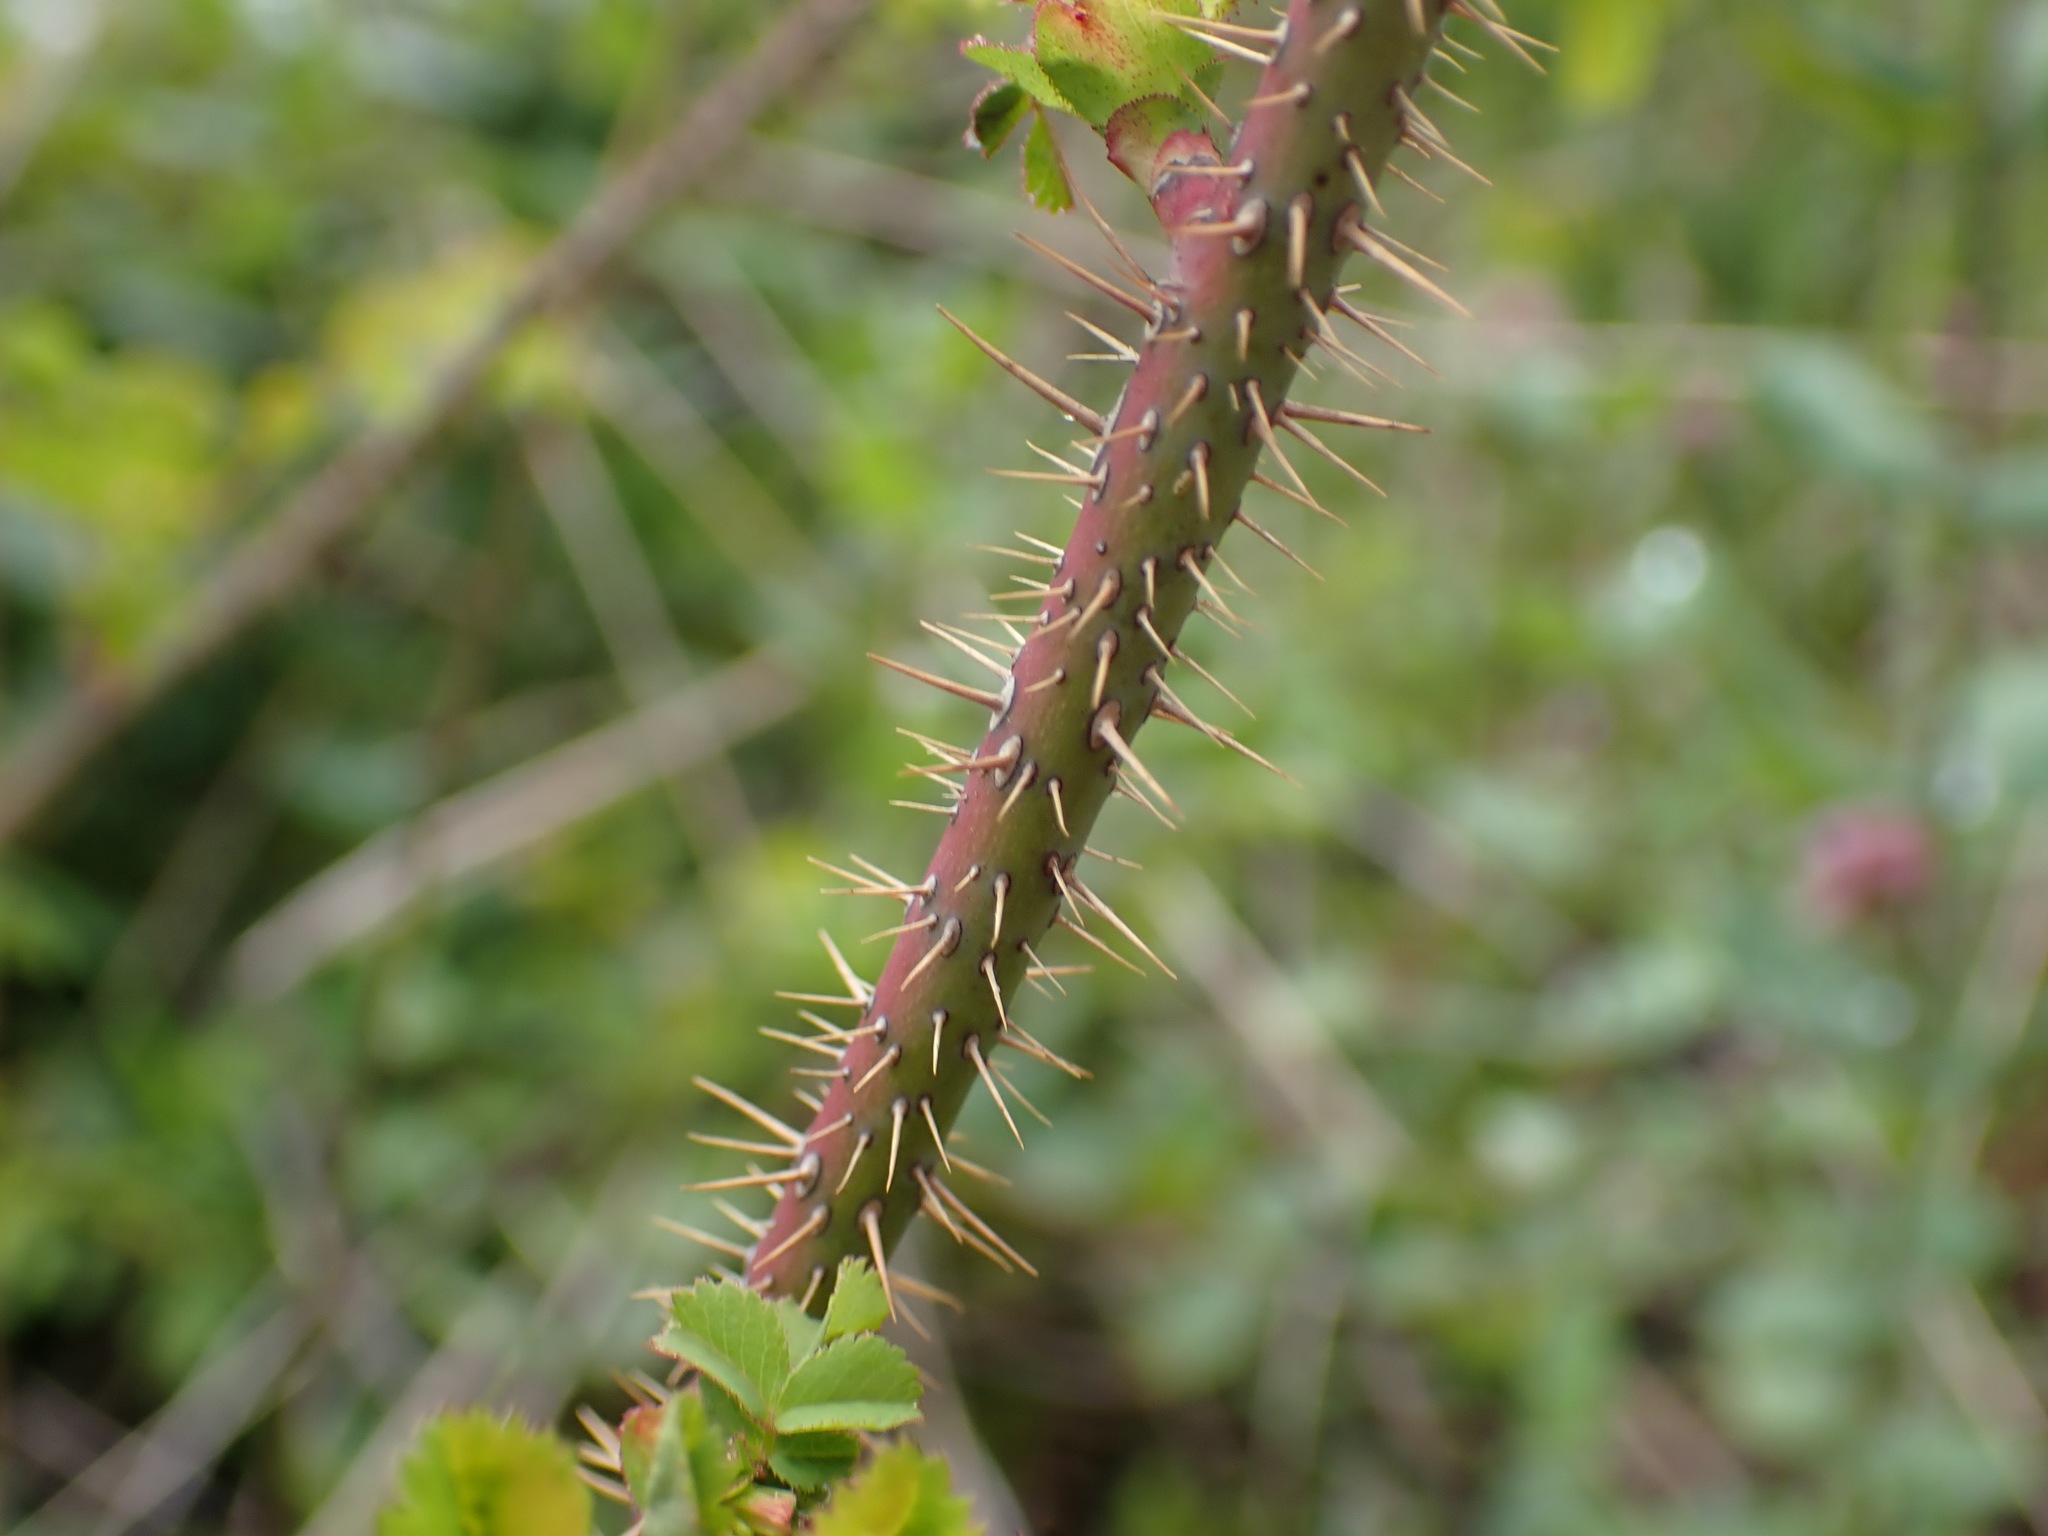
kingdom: Plantae
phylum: Tracheophyta
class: Magnoliopsida
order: Rosales
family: Rosaceae
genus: Rosa
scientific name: Rosa gymnocarpa
